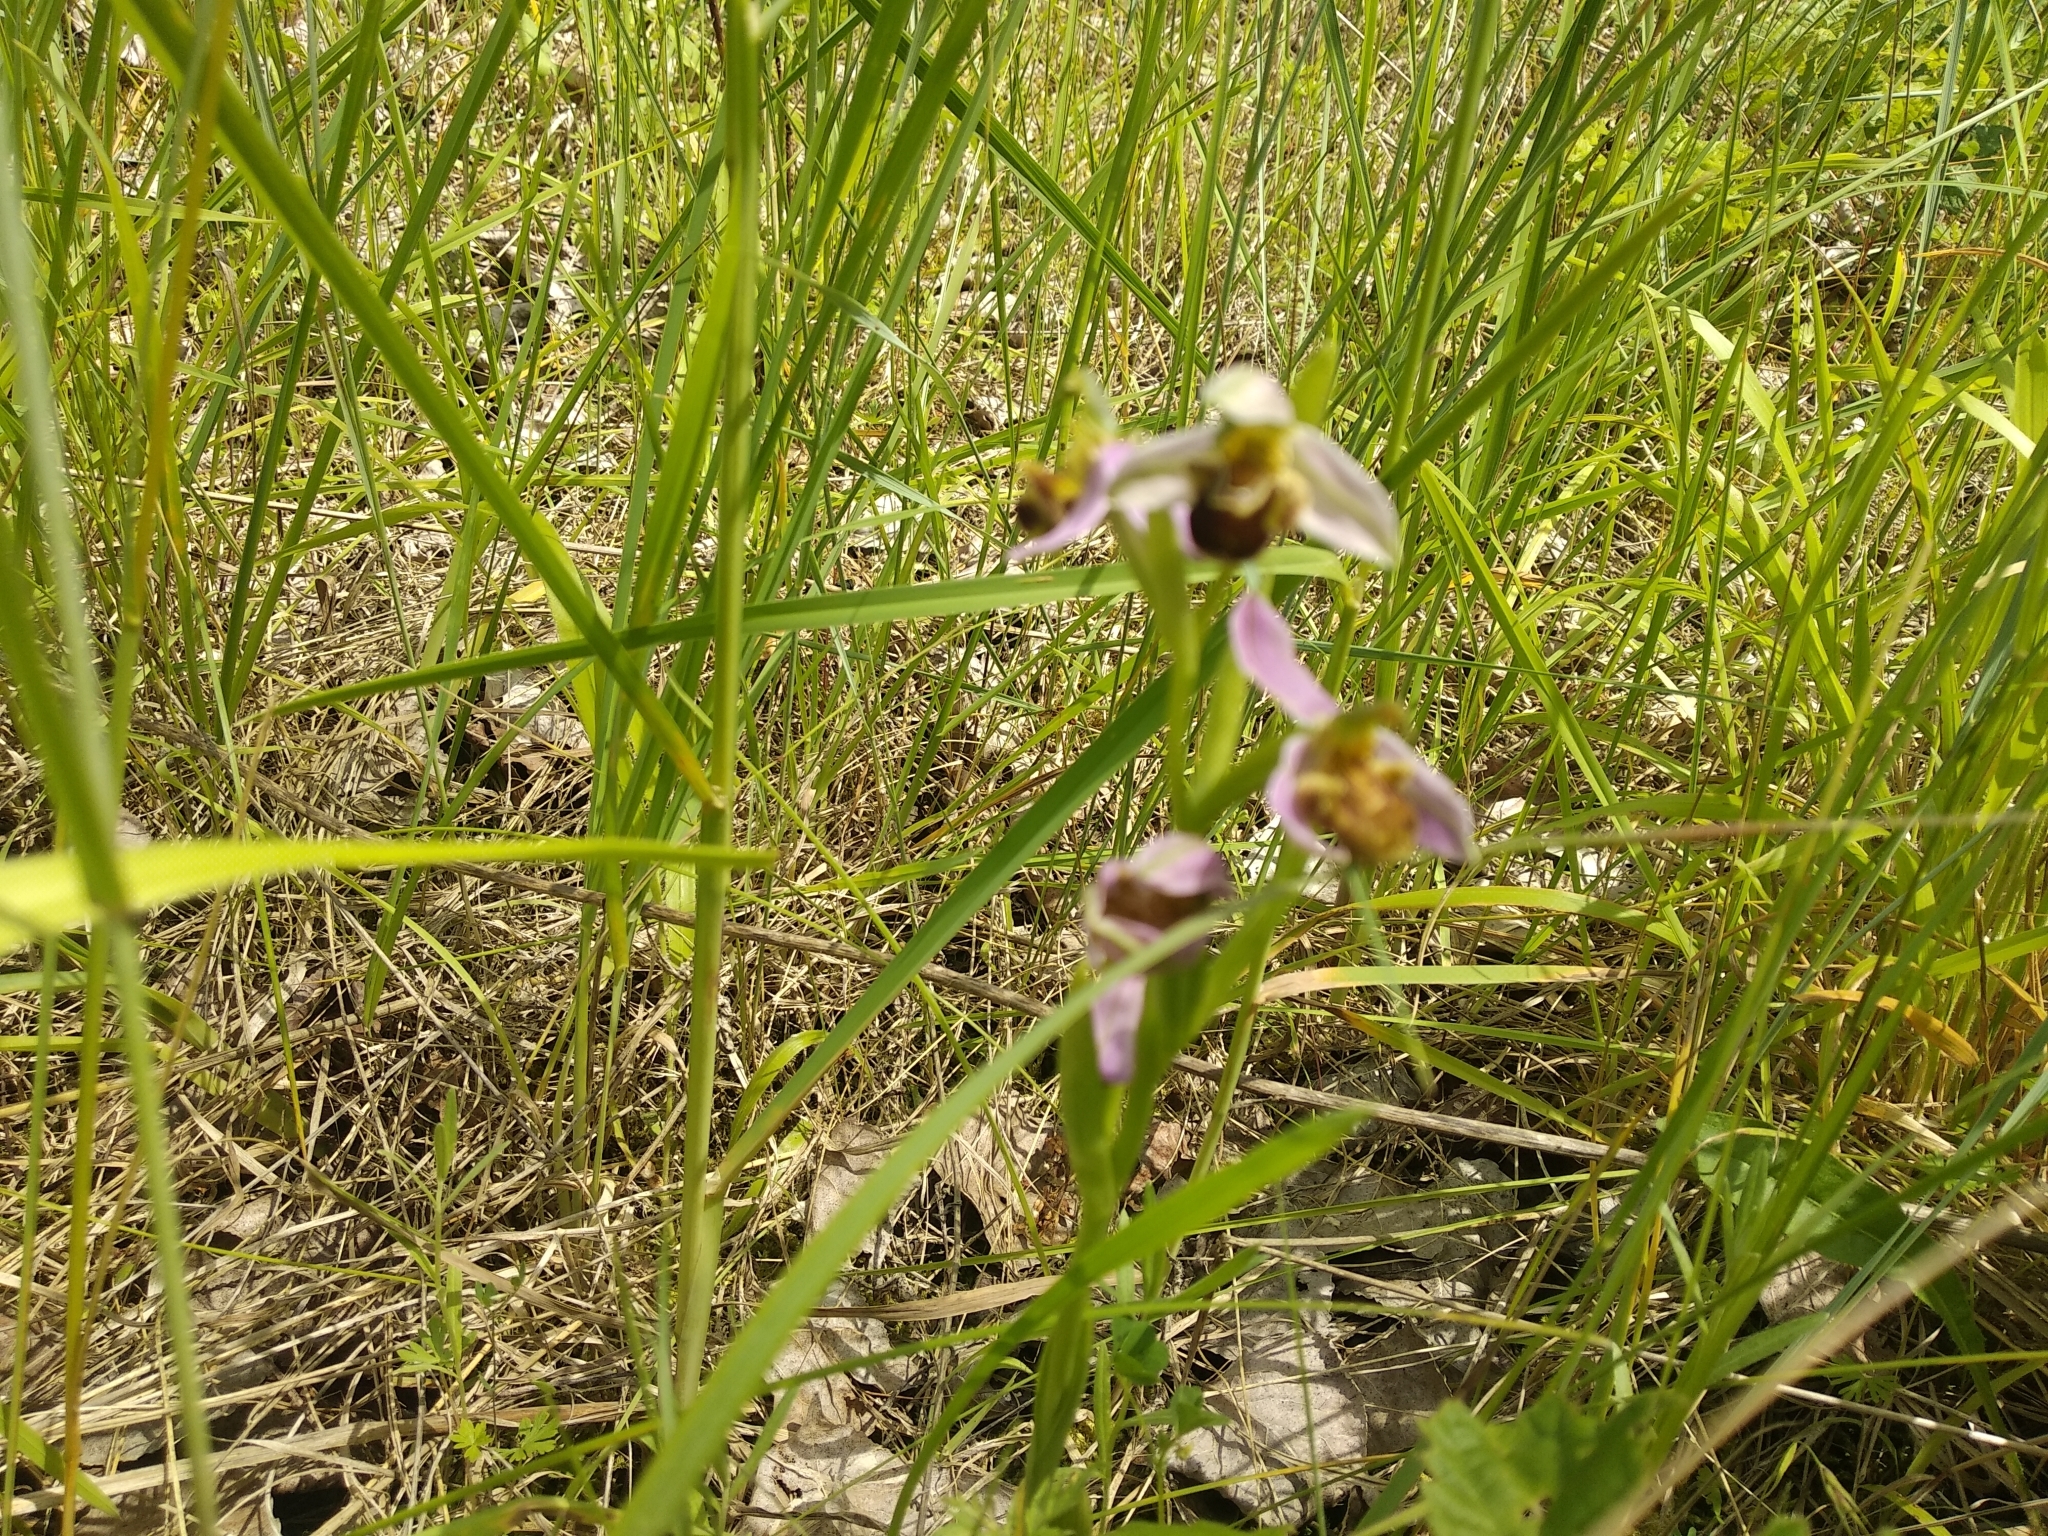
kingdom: Plantae
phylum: Tracheophyta
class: Liliopsida
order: Asparagales
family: Orchidaceae
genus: Ophrys
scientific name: Ophrys apifera
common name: Bee orchid
